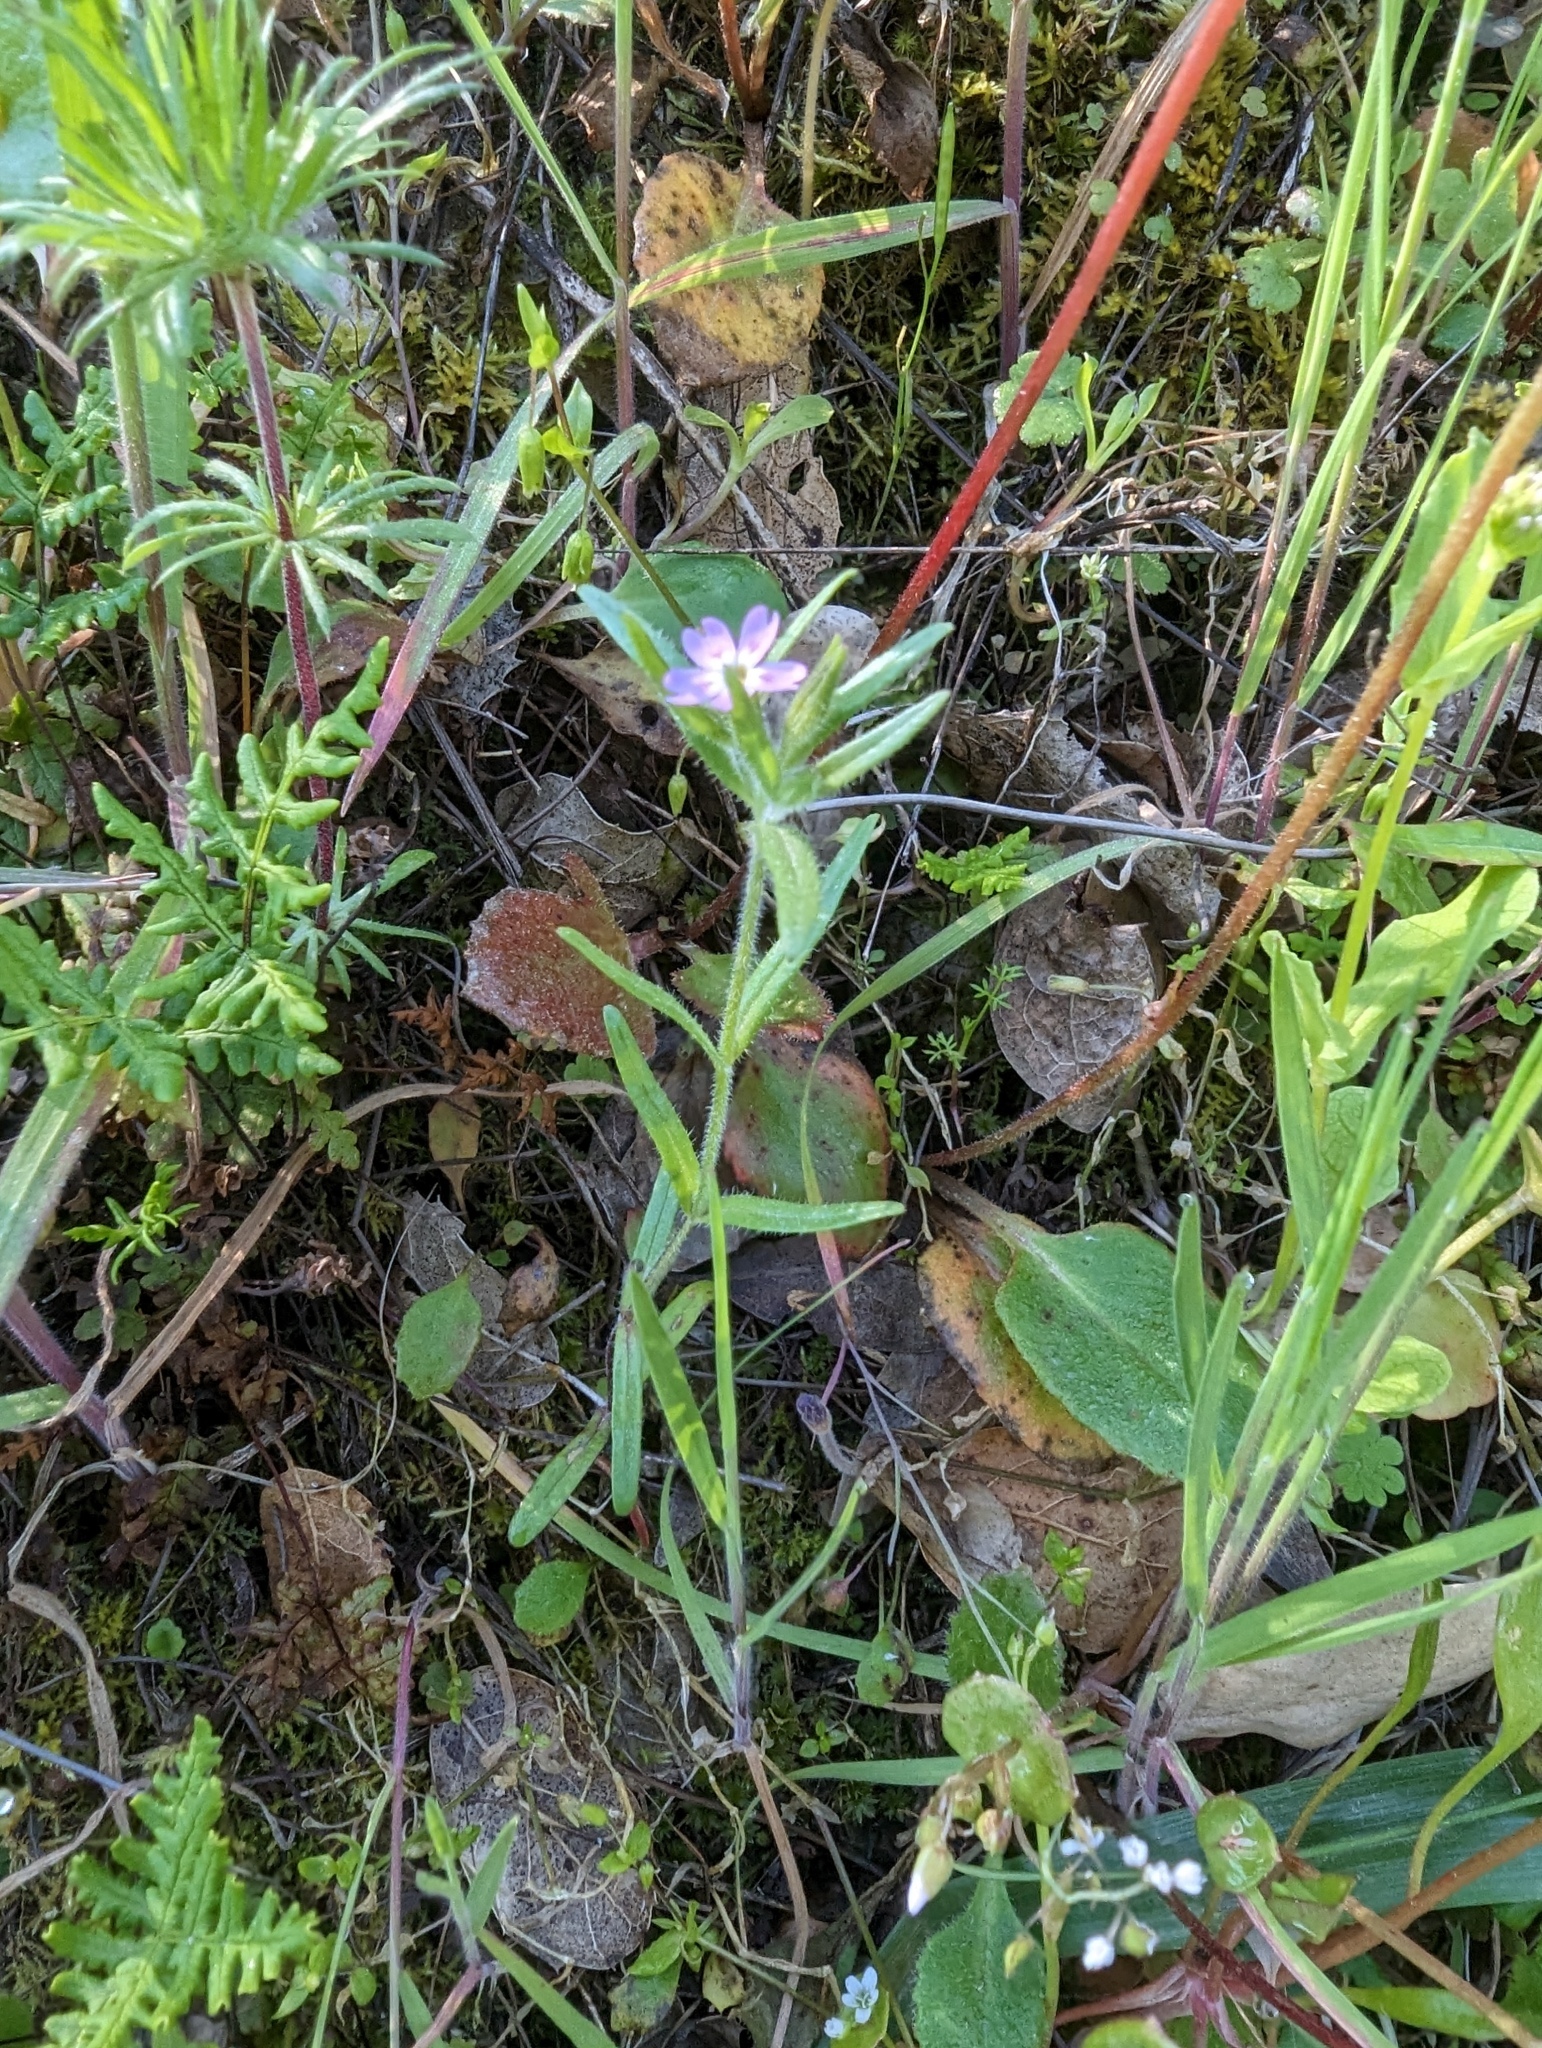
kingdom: Plantae
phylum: Tracheophyta
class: Magnoliopsida
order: Ericales
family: Polemoniaceae
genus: Phlox
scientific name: Phlox gracilis
